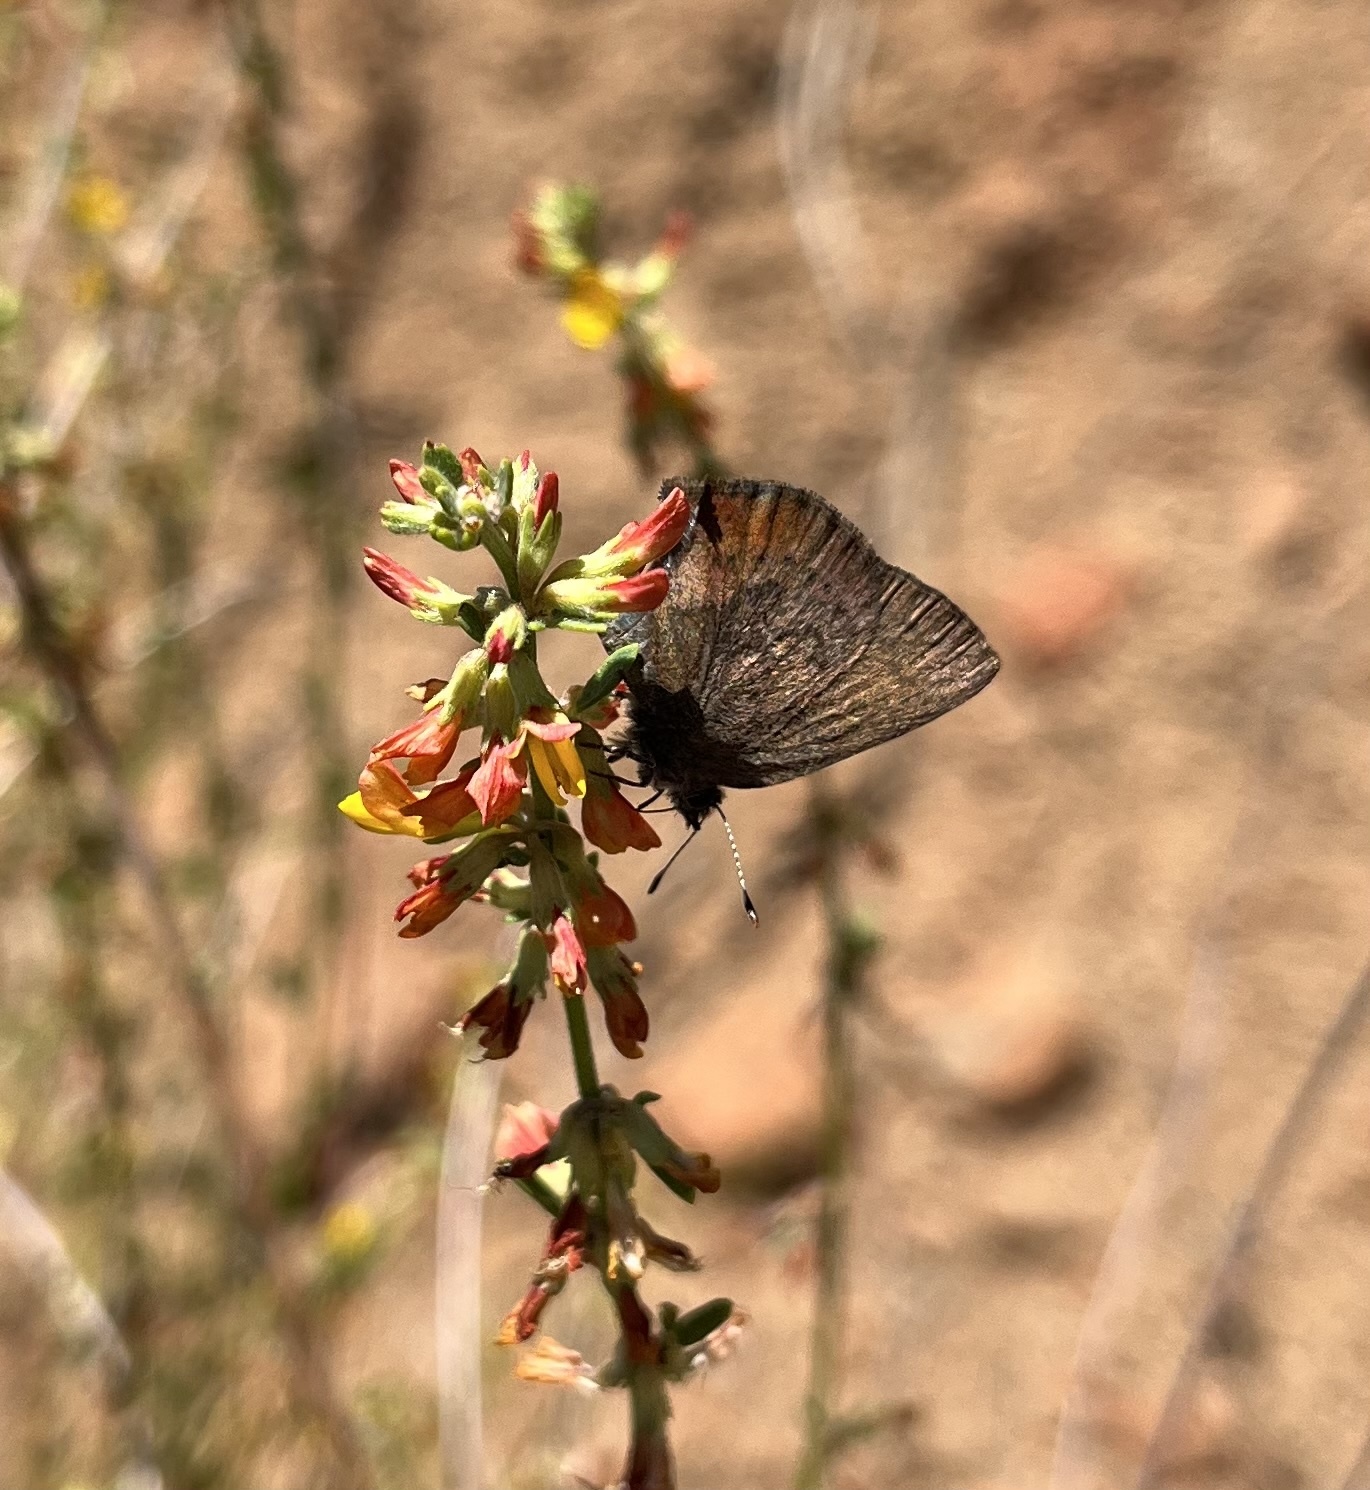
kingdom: Animalia
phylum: Arthropoda
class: Insecta
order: Lepidoptera
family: Lycaenidae
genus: Incisalia
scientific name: Incisalia irioides
